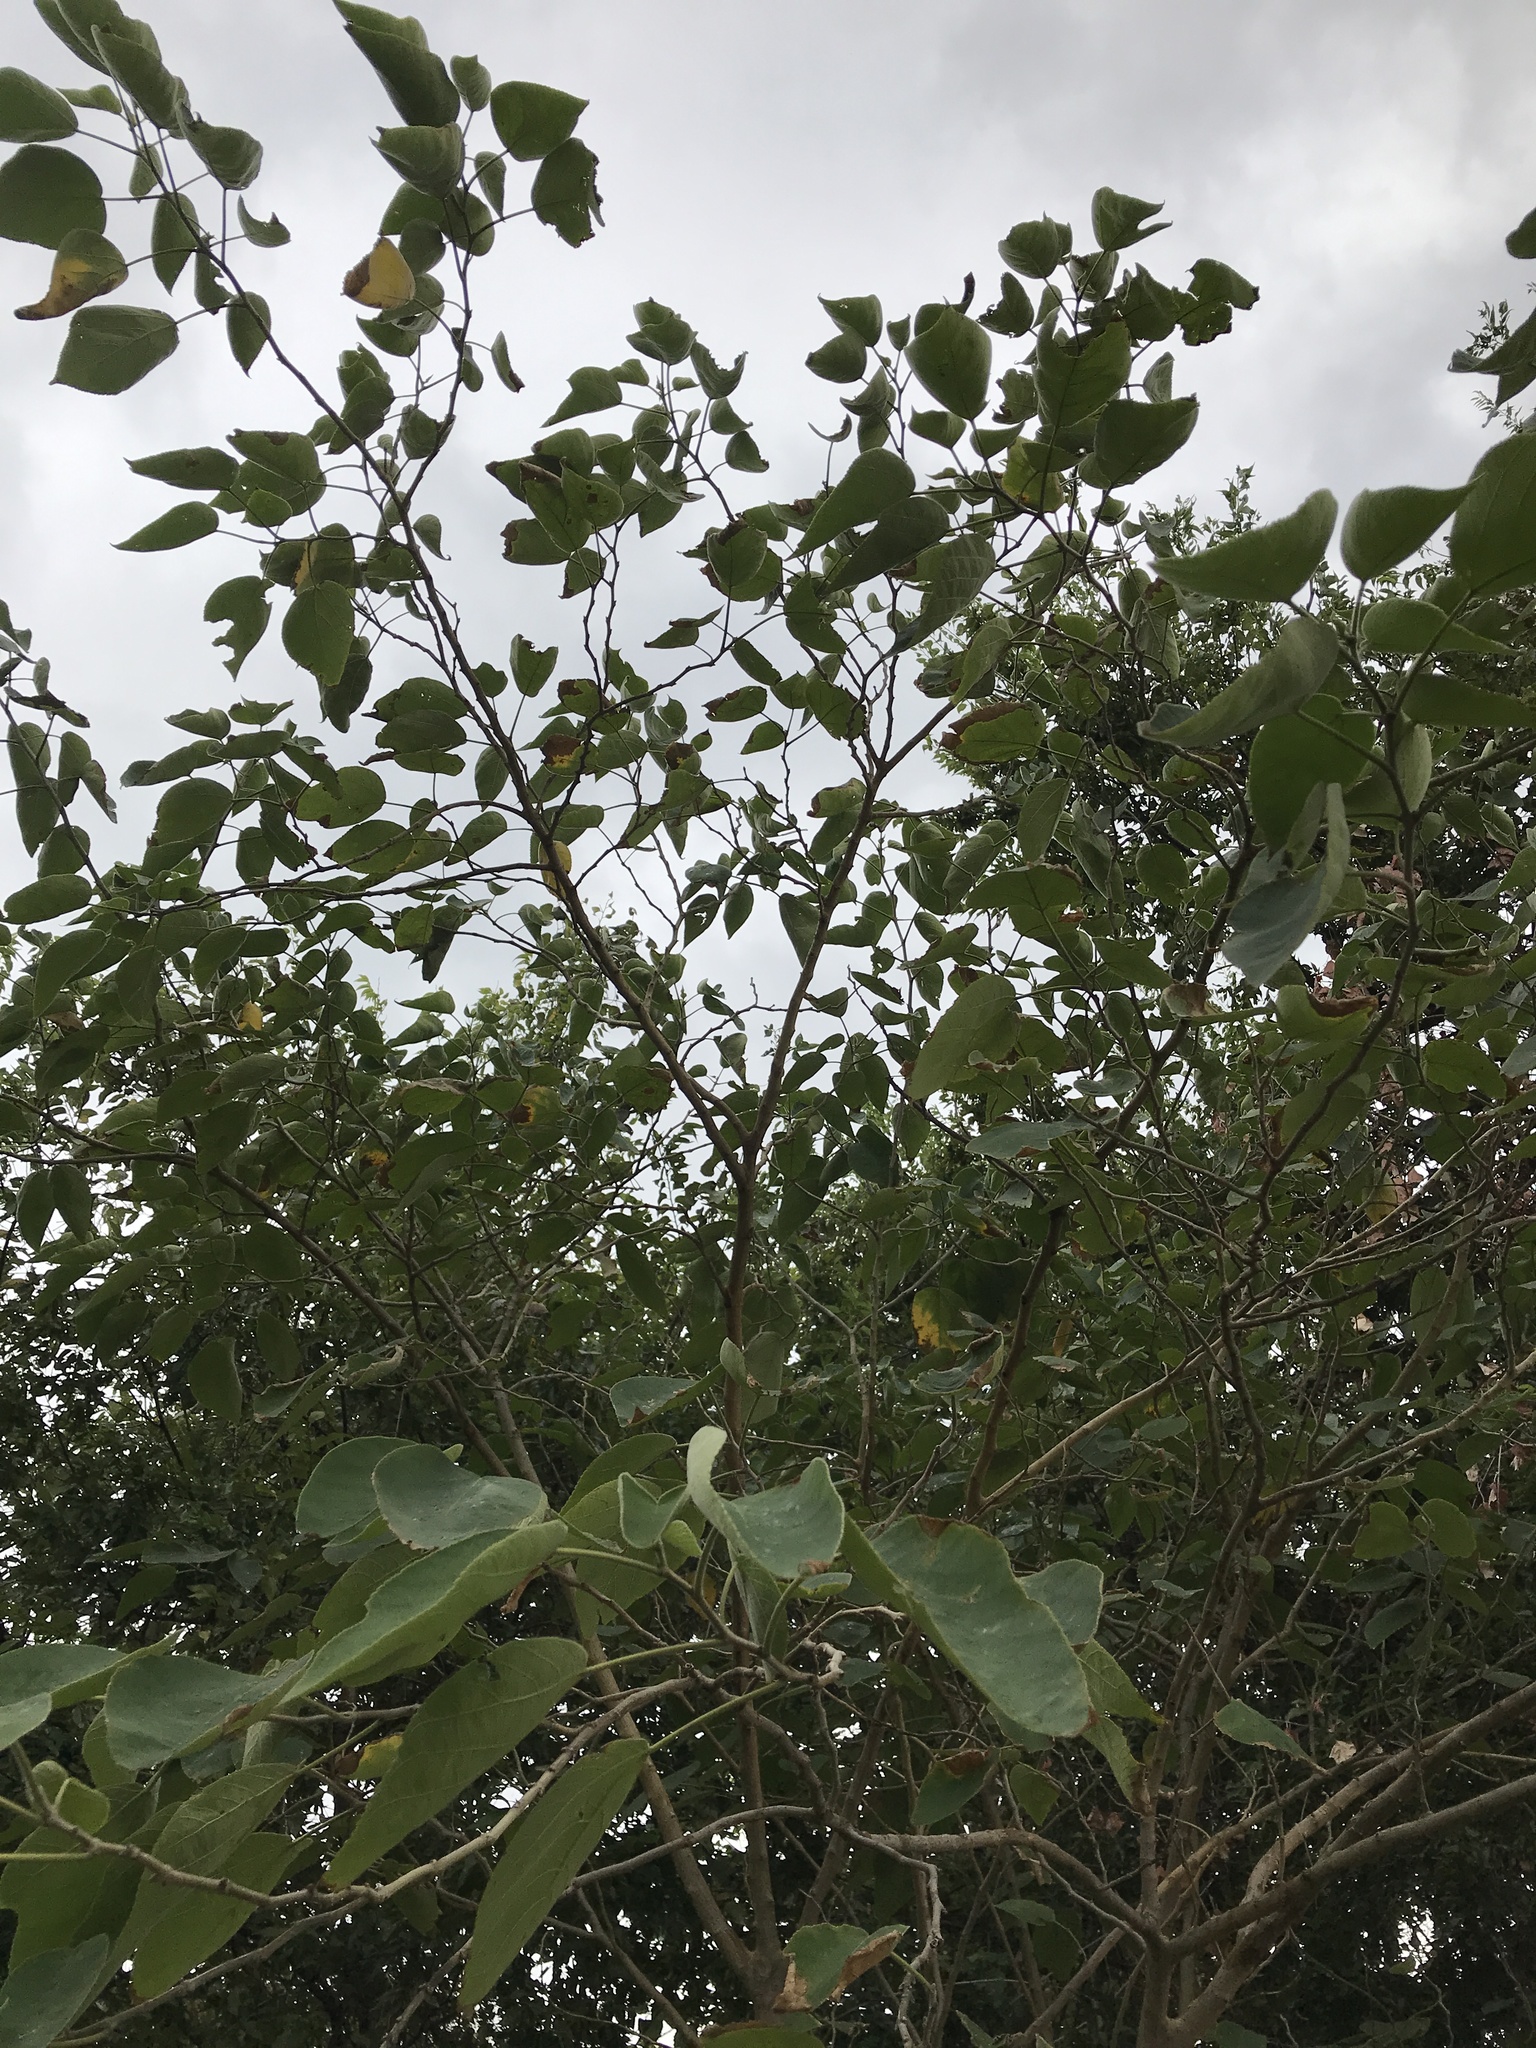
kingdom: Plantae
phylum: Tracheophyta
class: Magnoliopsida
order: Rosales
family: Moraceae
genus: Broussonetia
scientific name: Broussonetia papyrifera
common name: Paper mulberry
